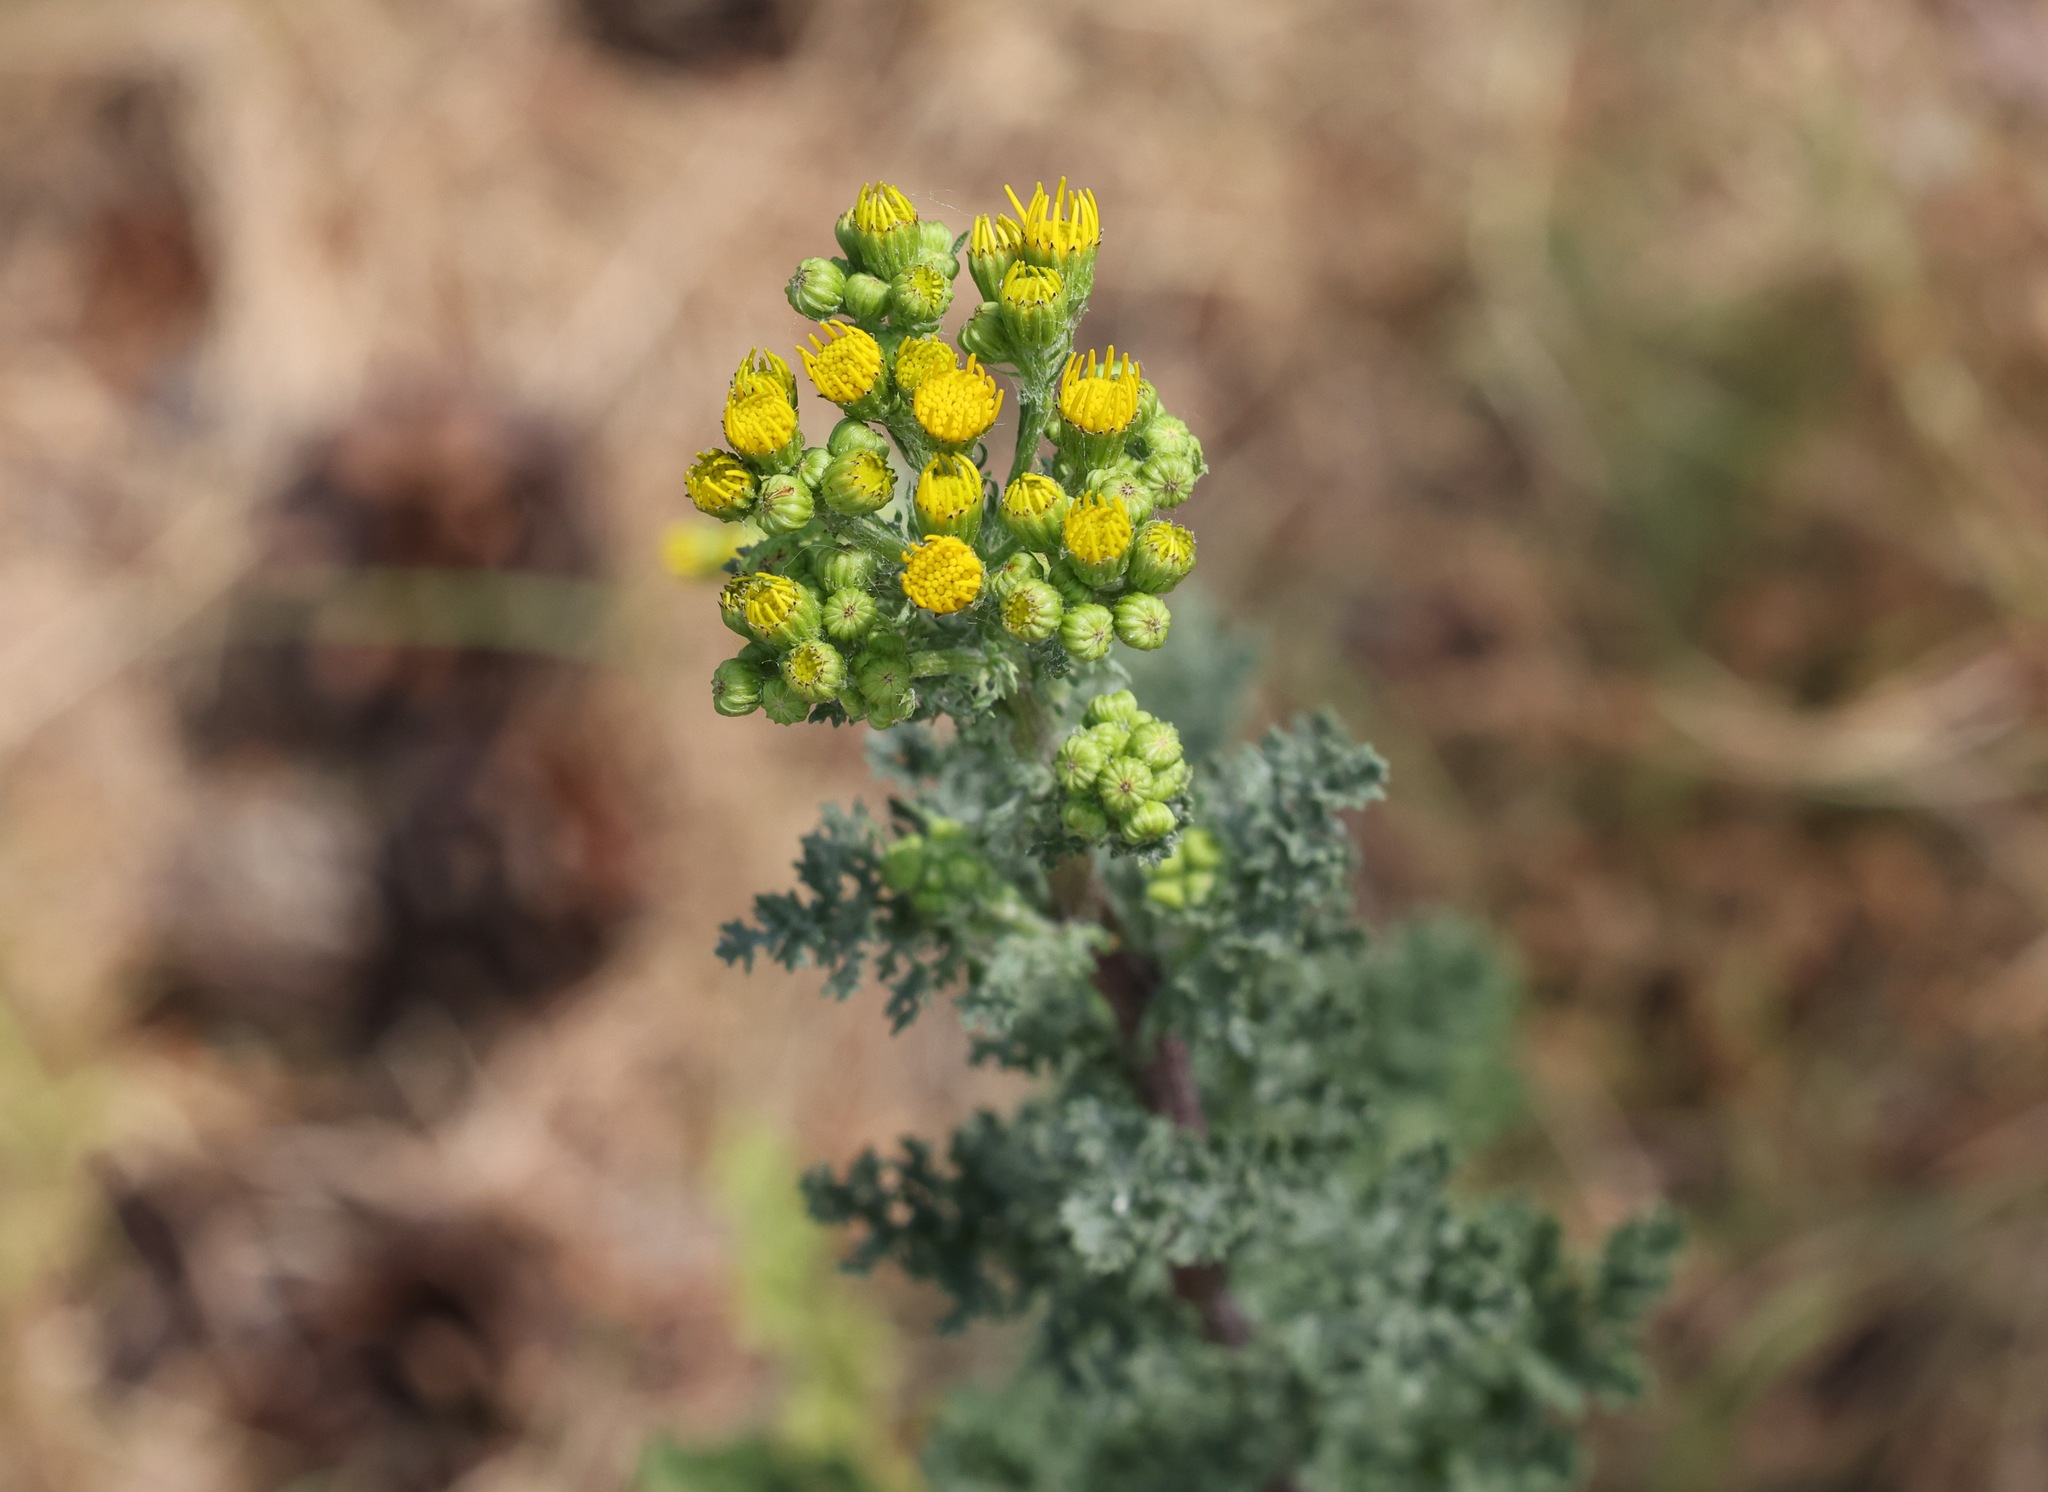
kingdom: Plantae
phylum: Tracheophyta
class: Magnoliopsida
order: Asterales
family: Asteraceae
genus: Jacobaea
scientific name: Jacobaea vulgaris
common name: Stinking willie
